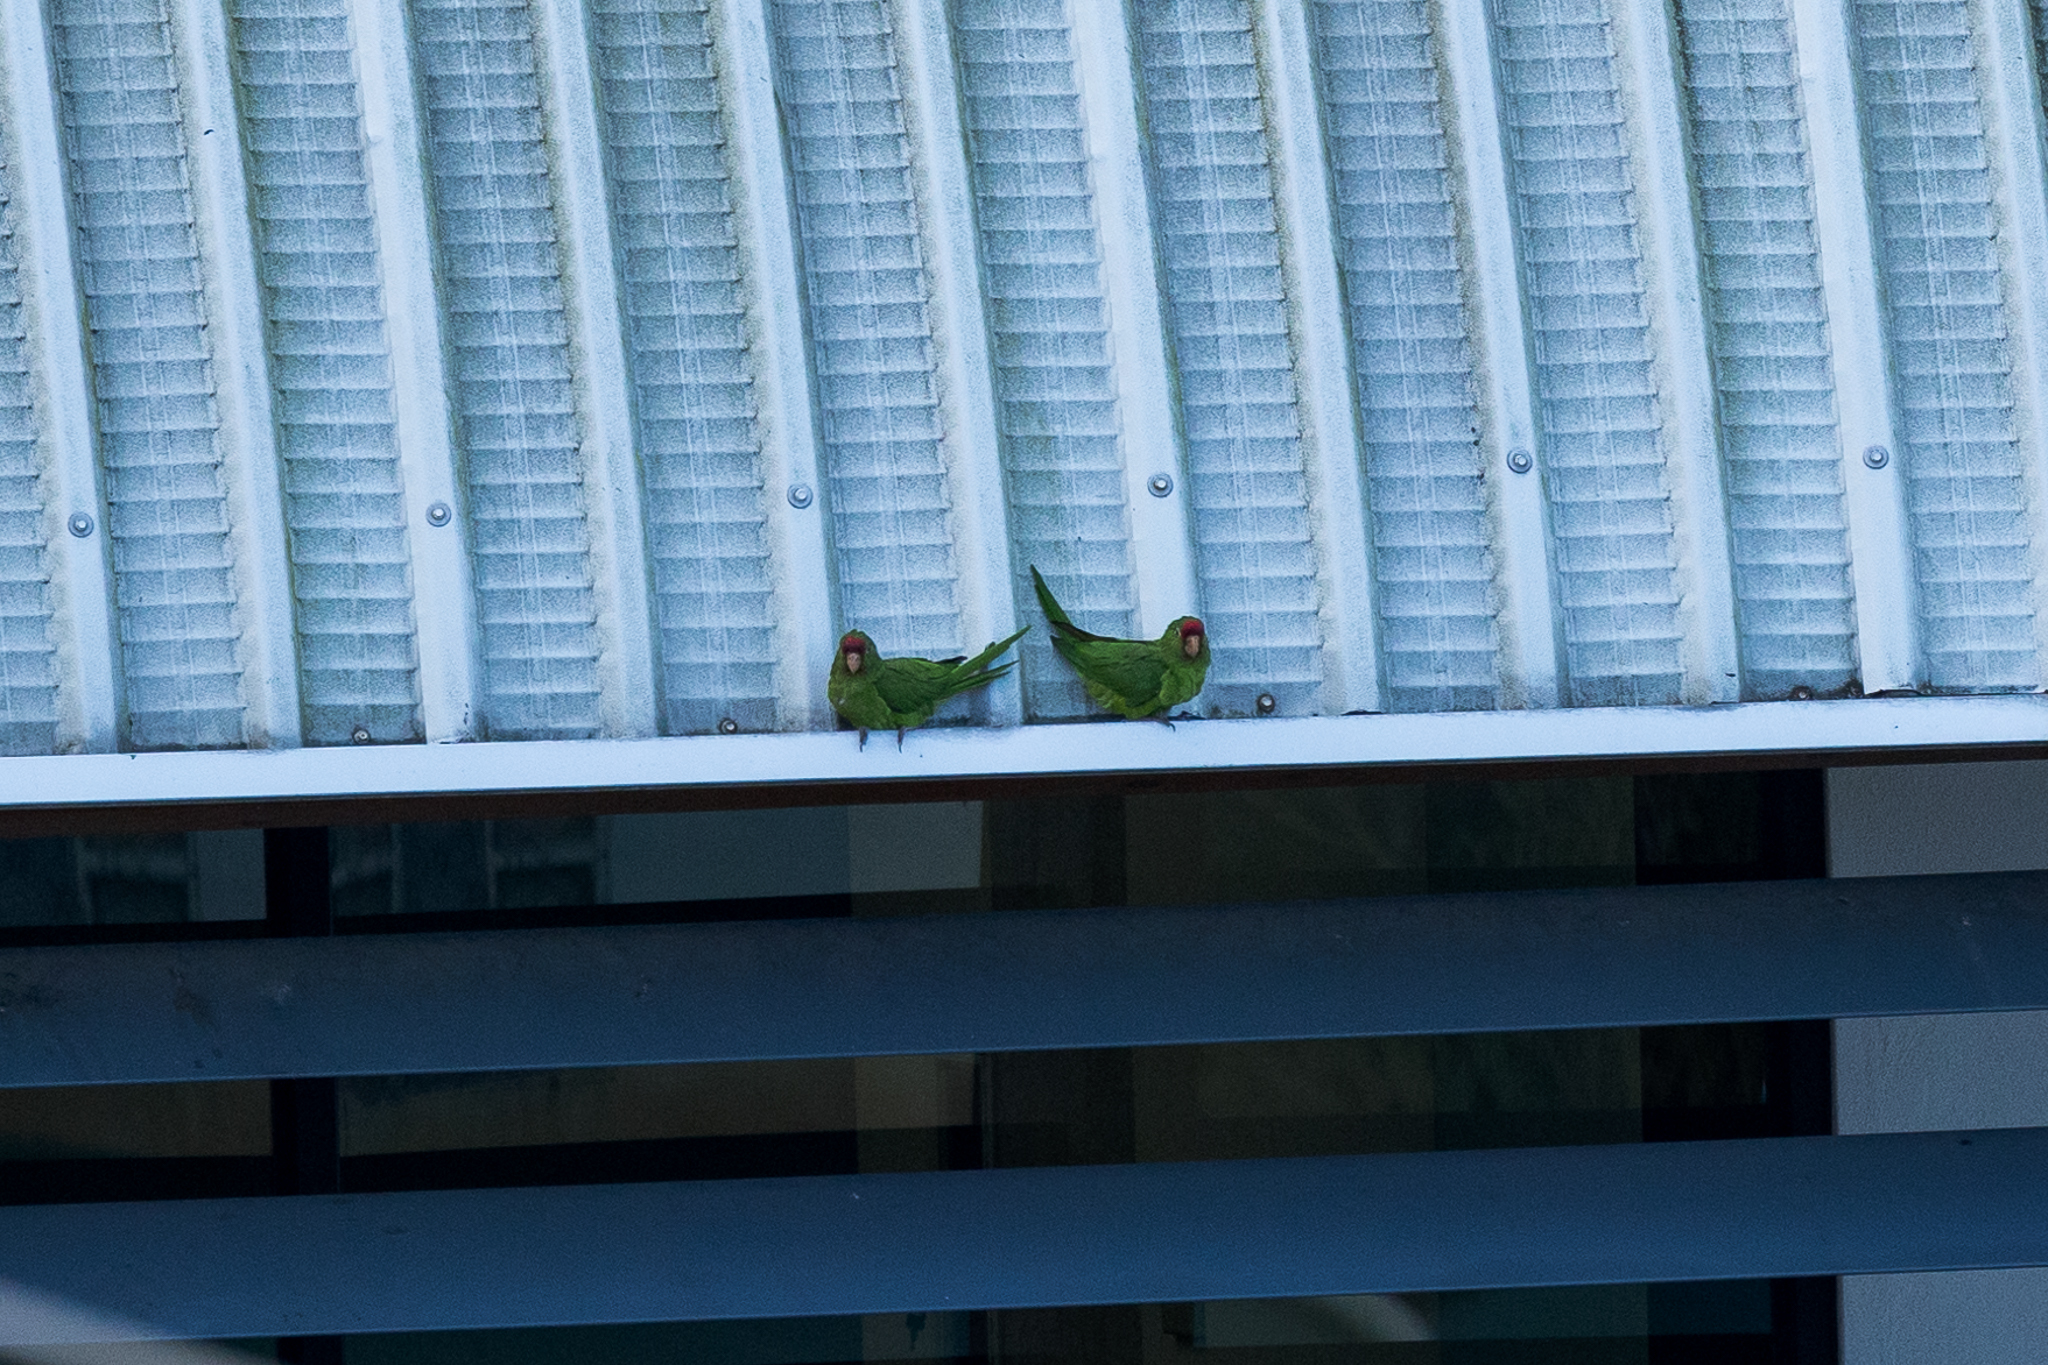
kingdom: Animalia
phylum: Chordata
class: Aves
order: Psittaciformes
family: Psittacidae
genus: Aratinga
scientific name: Aratinga finschi
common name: Crimson-fronted parakeet
